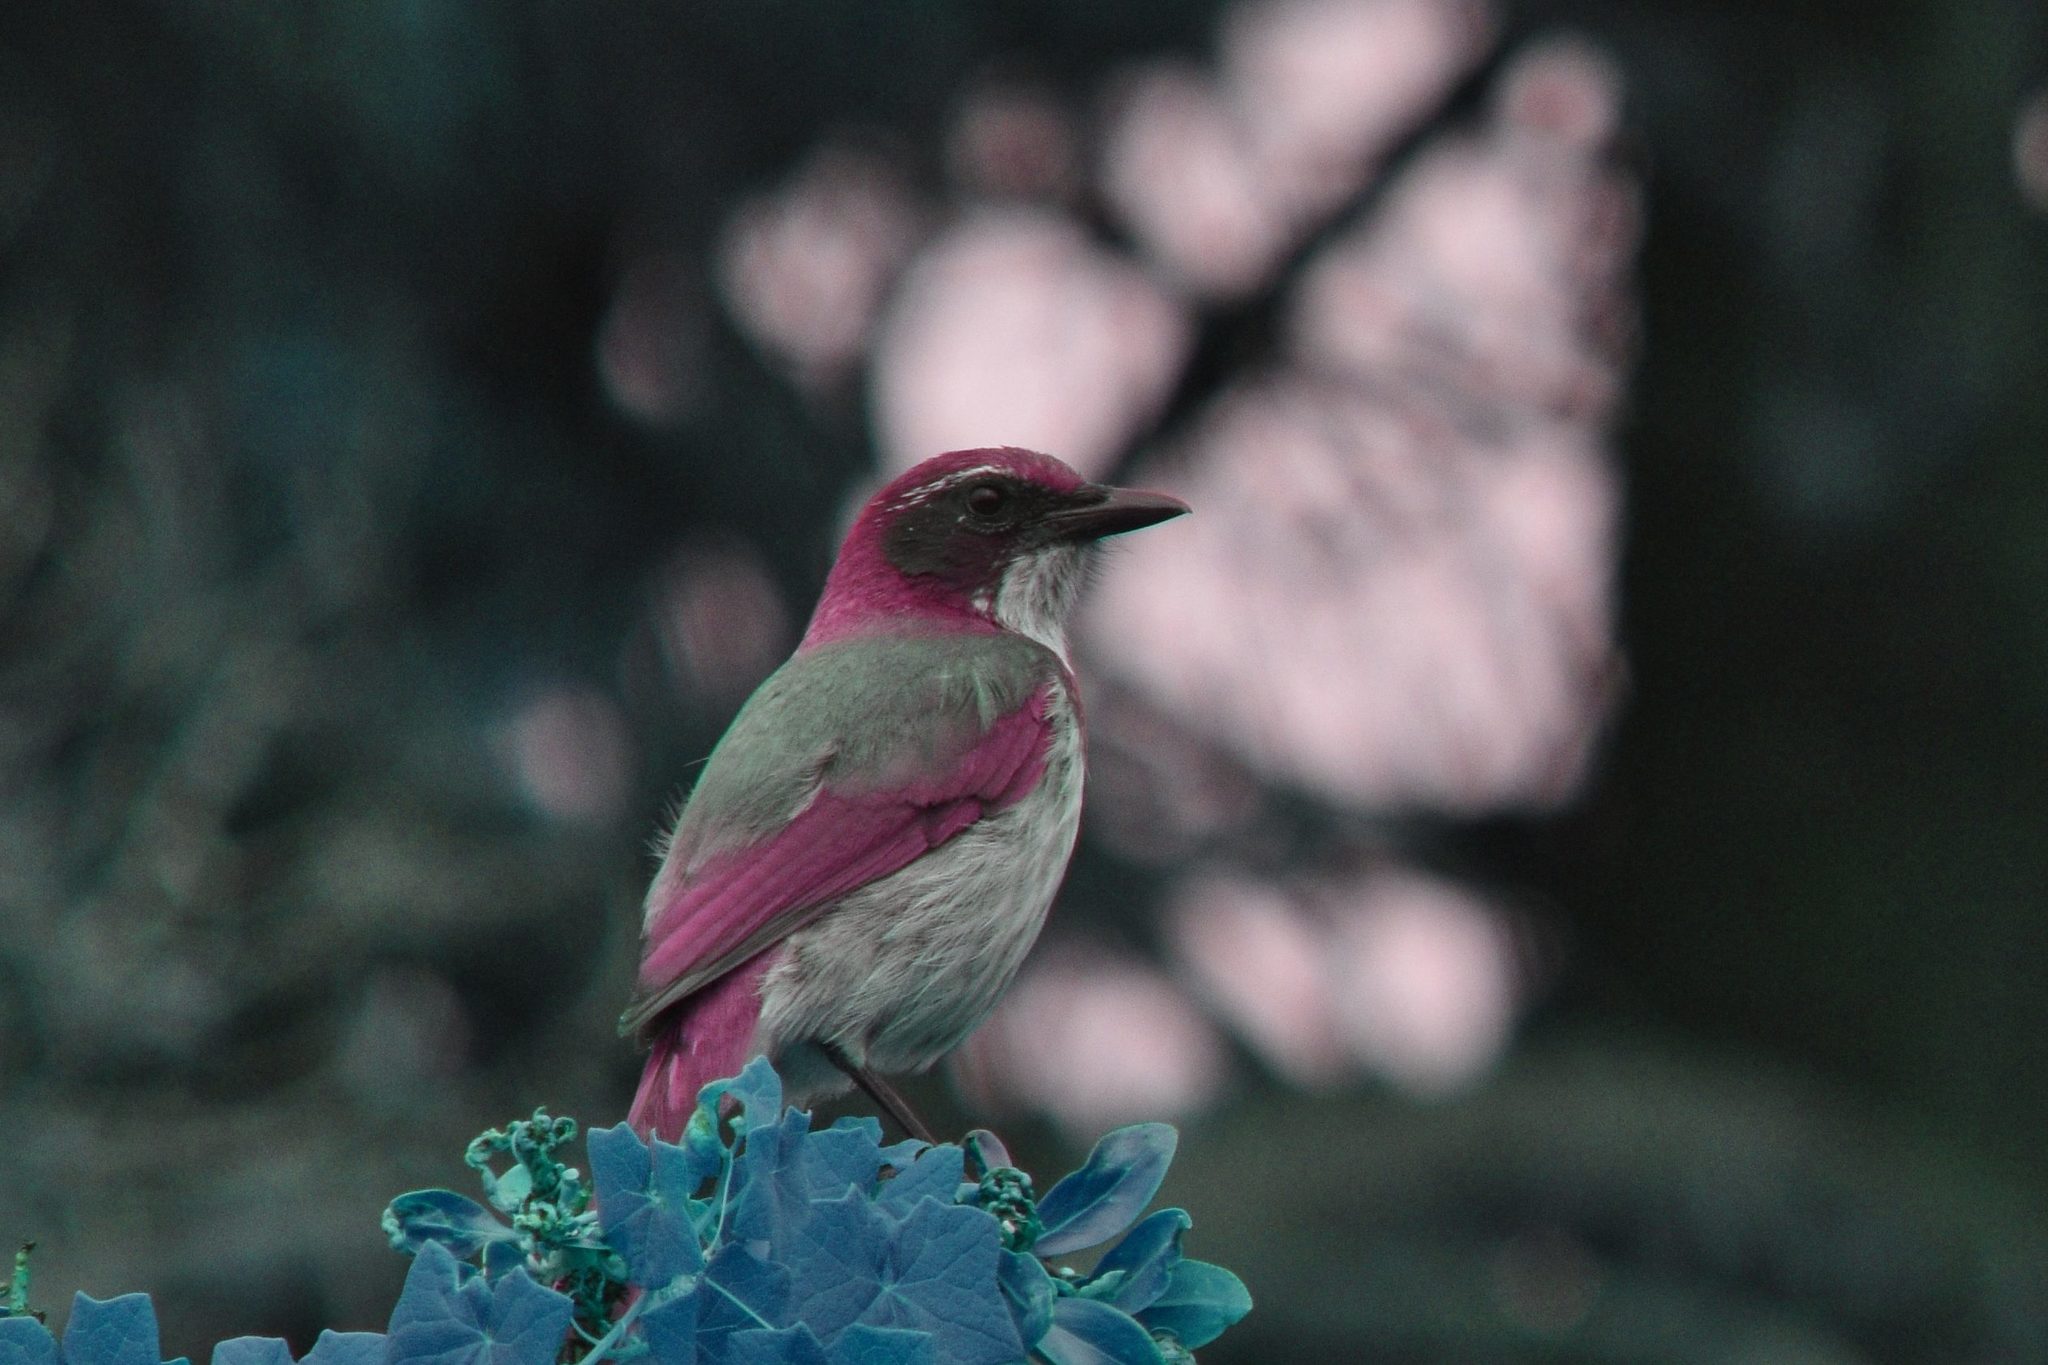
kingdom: Animalia
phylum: Chordata
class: Aves
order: Passeriformes
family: Corvidae
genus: Aphelocoma
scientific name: Aphelocoma californica
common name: California scrub-jay
